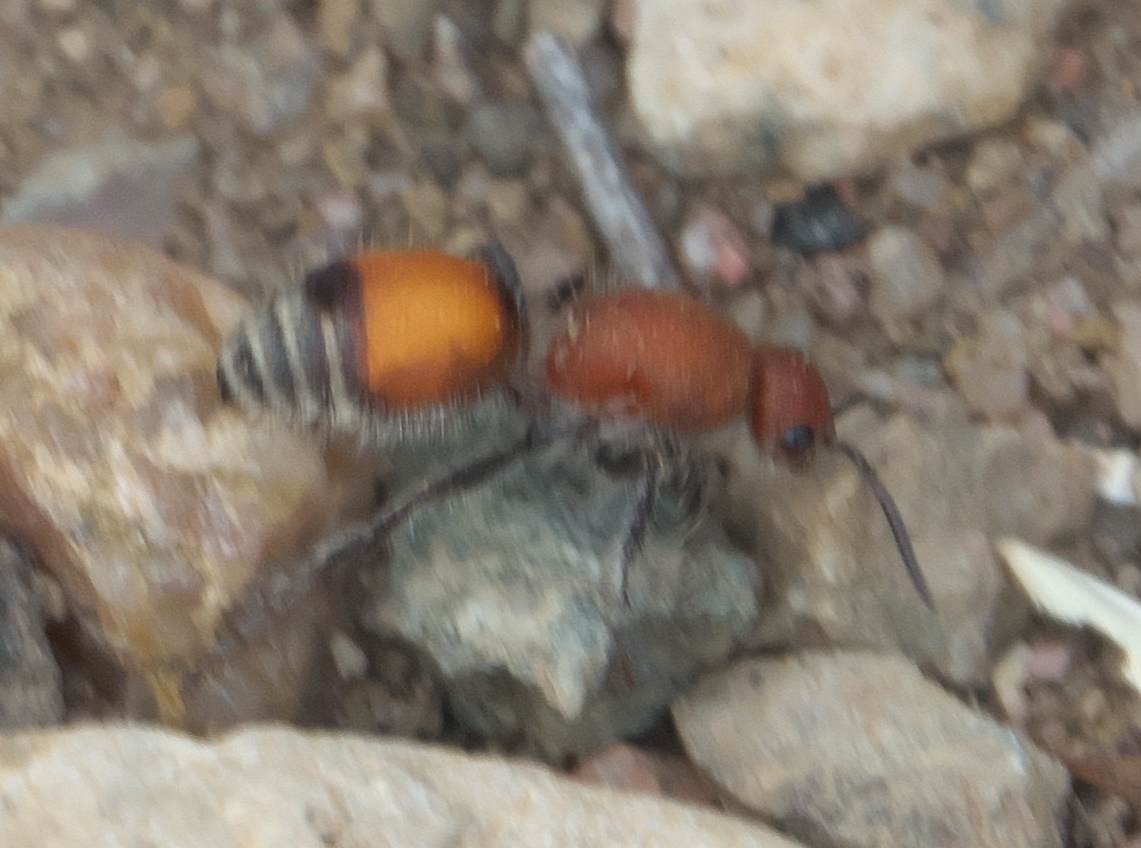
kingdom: Animalia
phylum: Arthropoda
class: Insecta
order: Hymenoptera
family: Mutillidae
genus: Dasymutilla
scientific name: Dasymutilla
